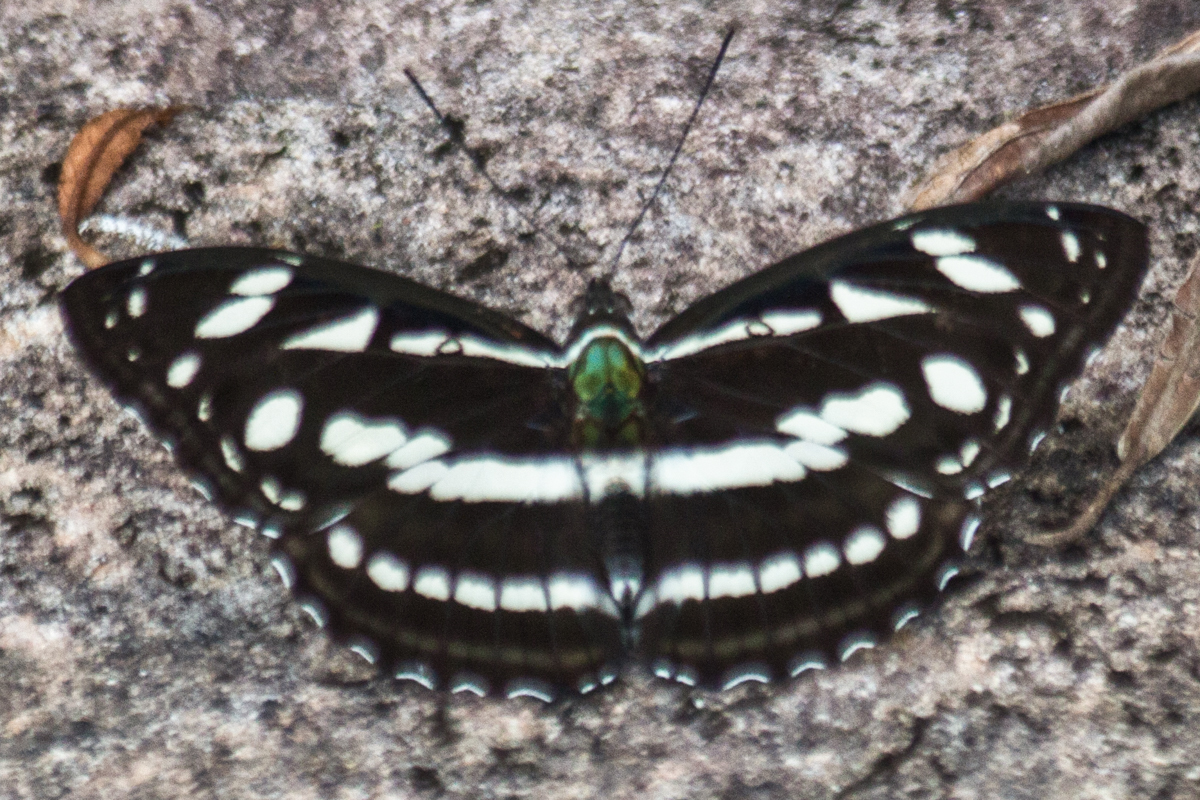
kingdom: Animalia
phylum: Arthropoda
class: Insecta
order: Lepidoptera
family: Nymphalidae
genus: Pantoporia
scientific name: Pantoporia larymna
